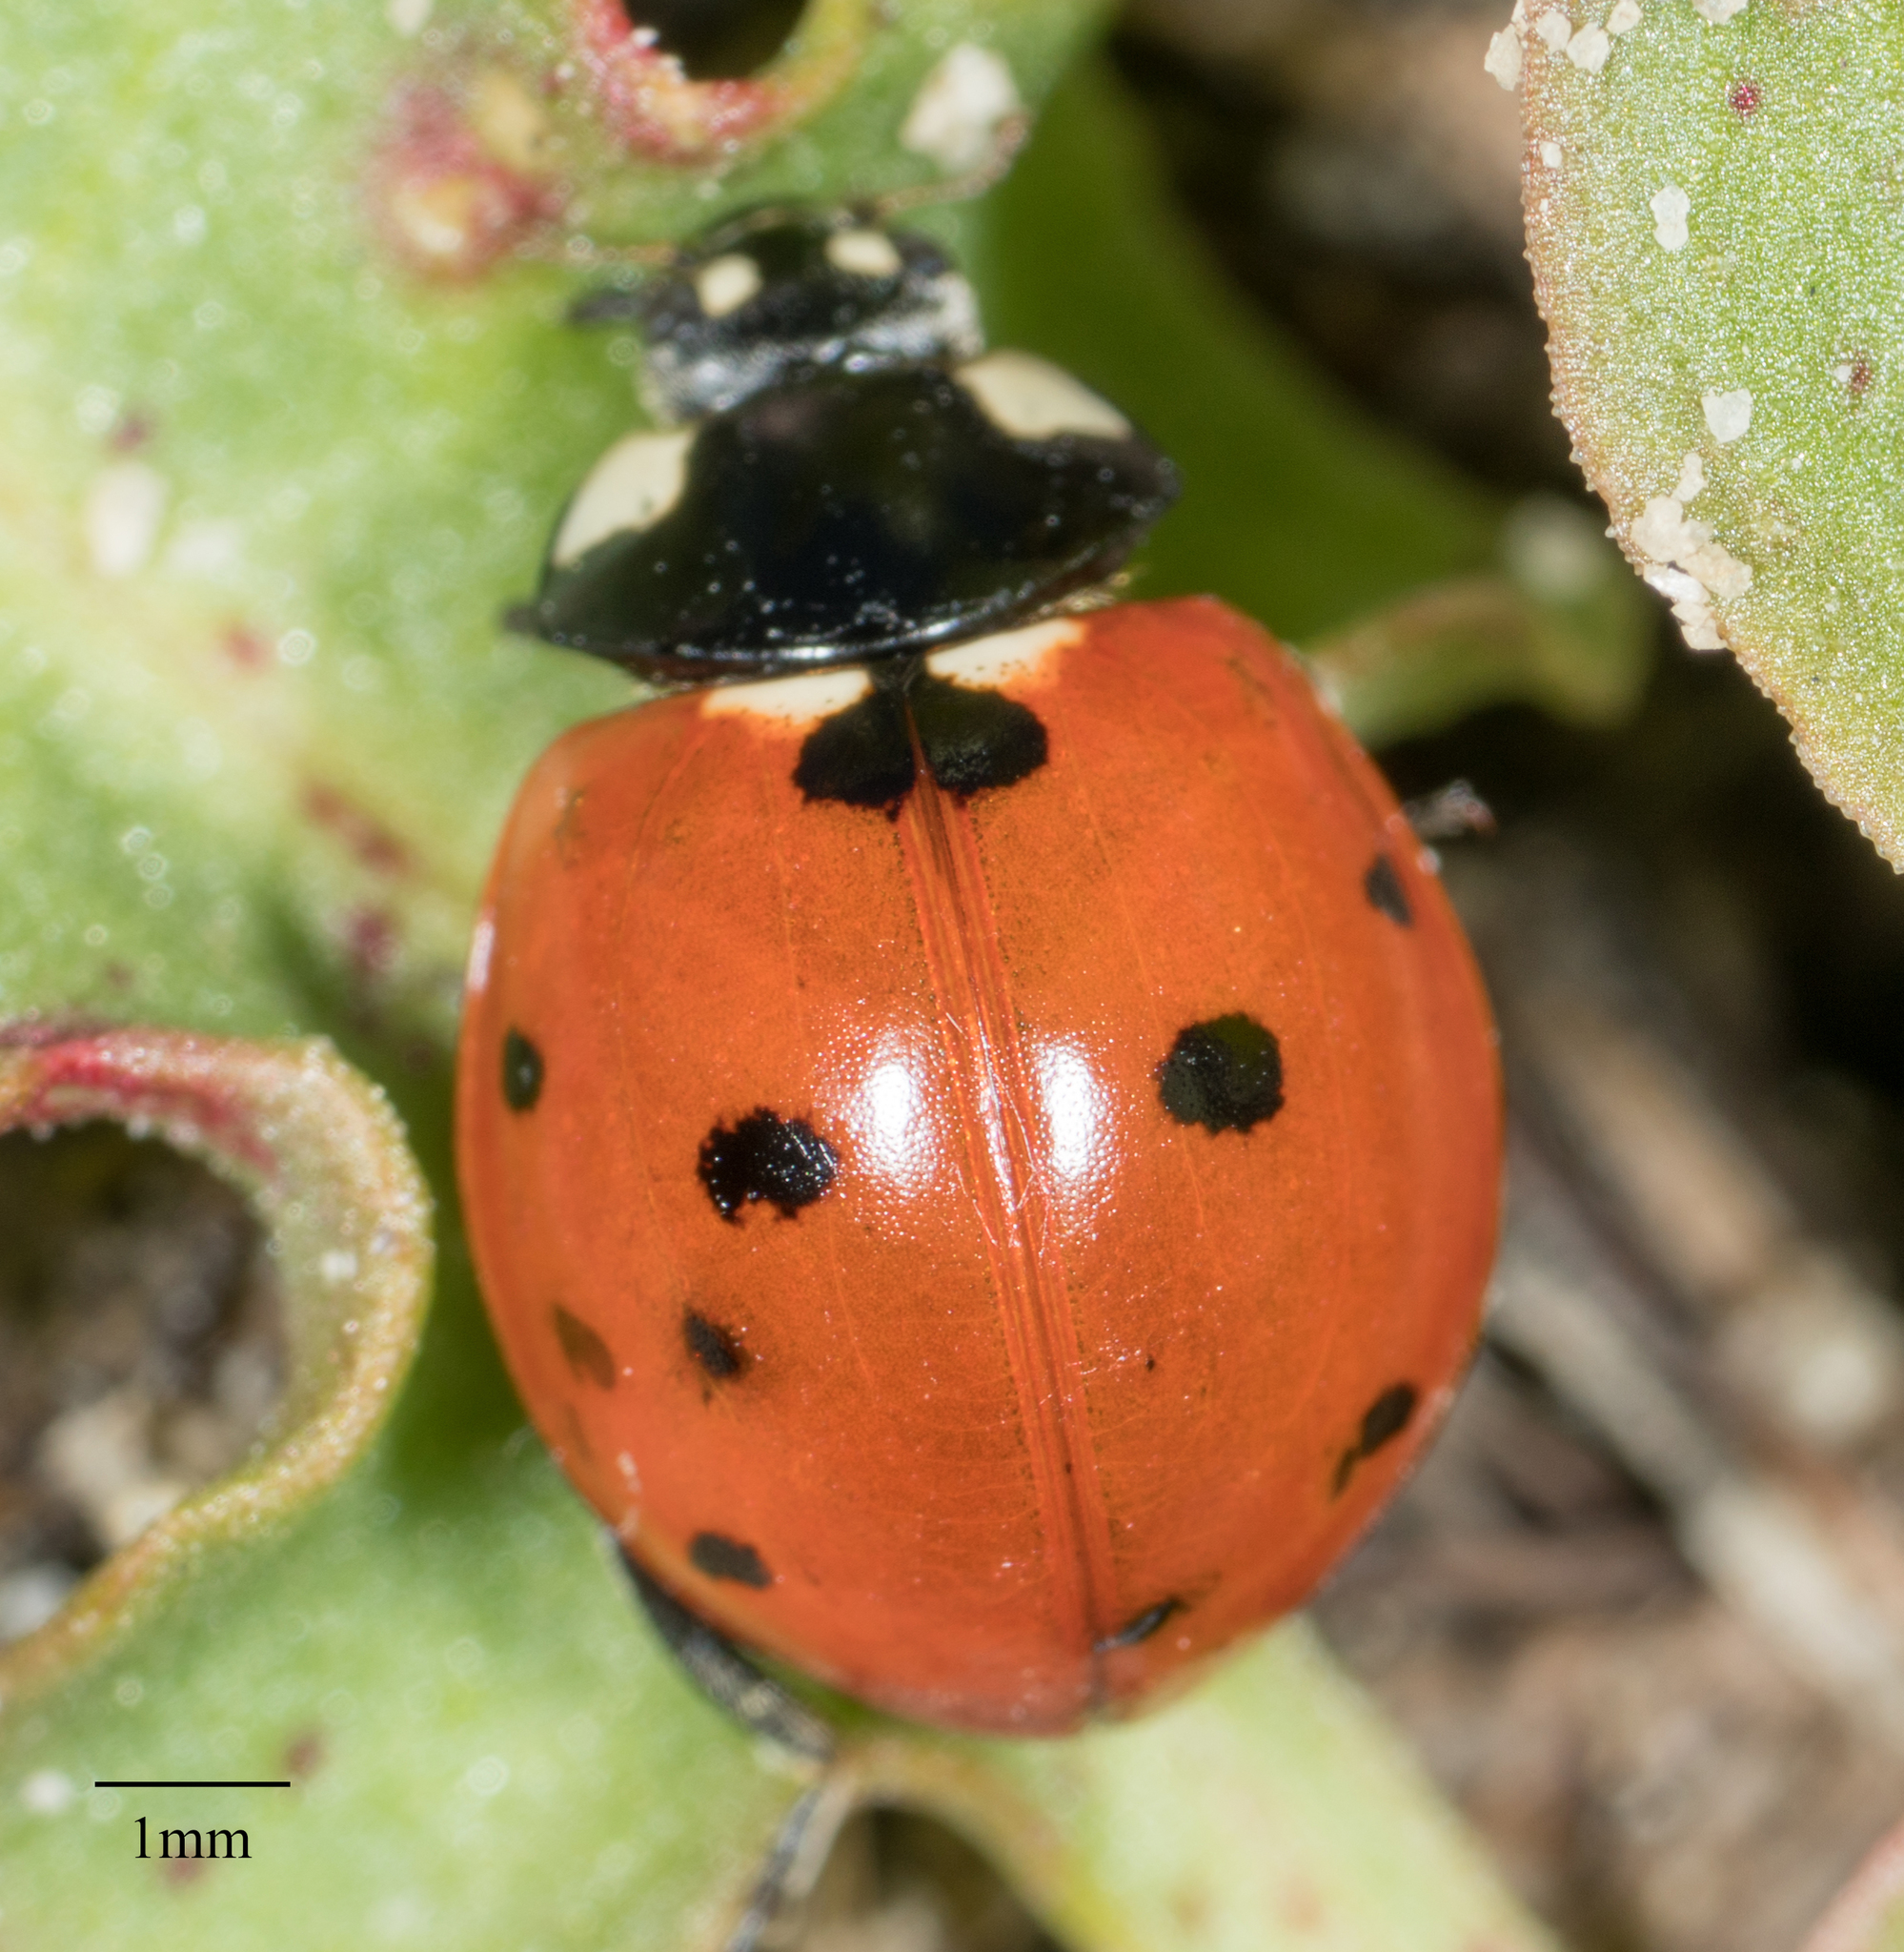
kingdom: Animalia
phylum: Arthropoda
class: Insecta
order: Coleoptera
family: Coccinellidae
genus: Coccinella
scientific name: Coccinella septempunctata
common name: Sevenspotted lady beetle
